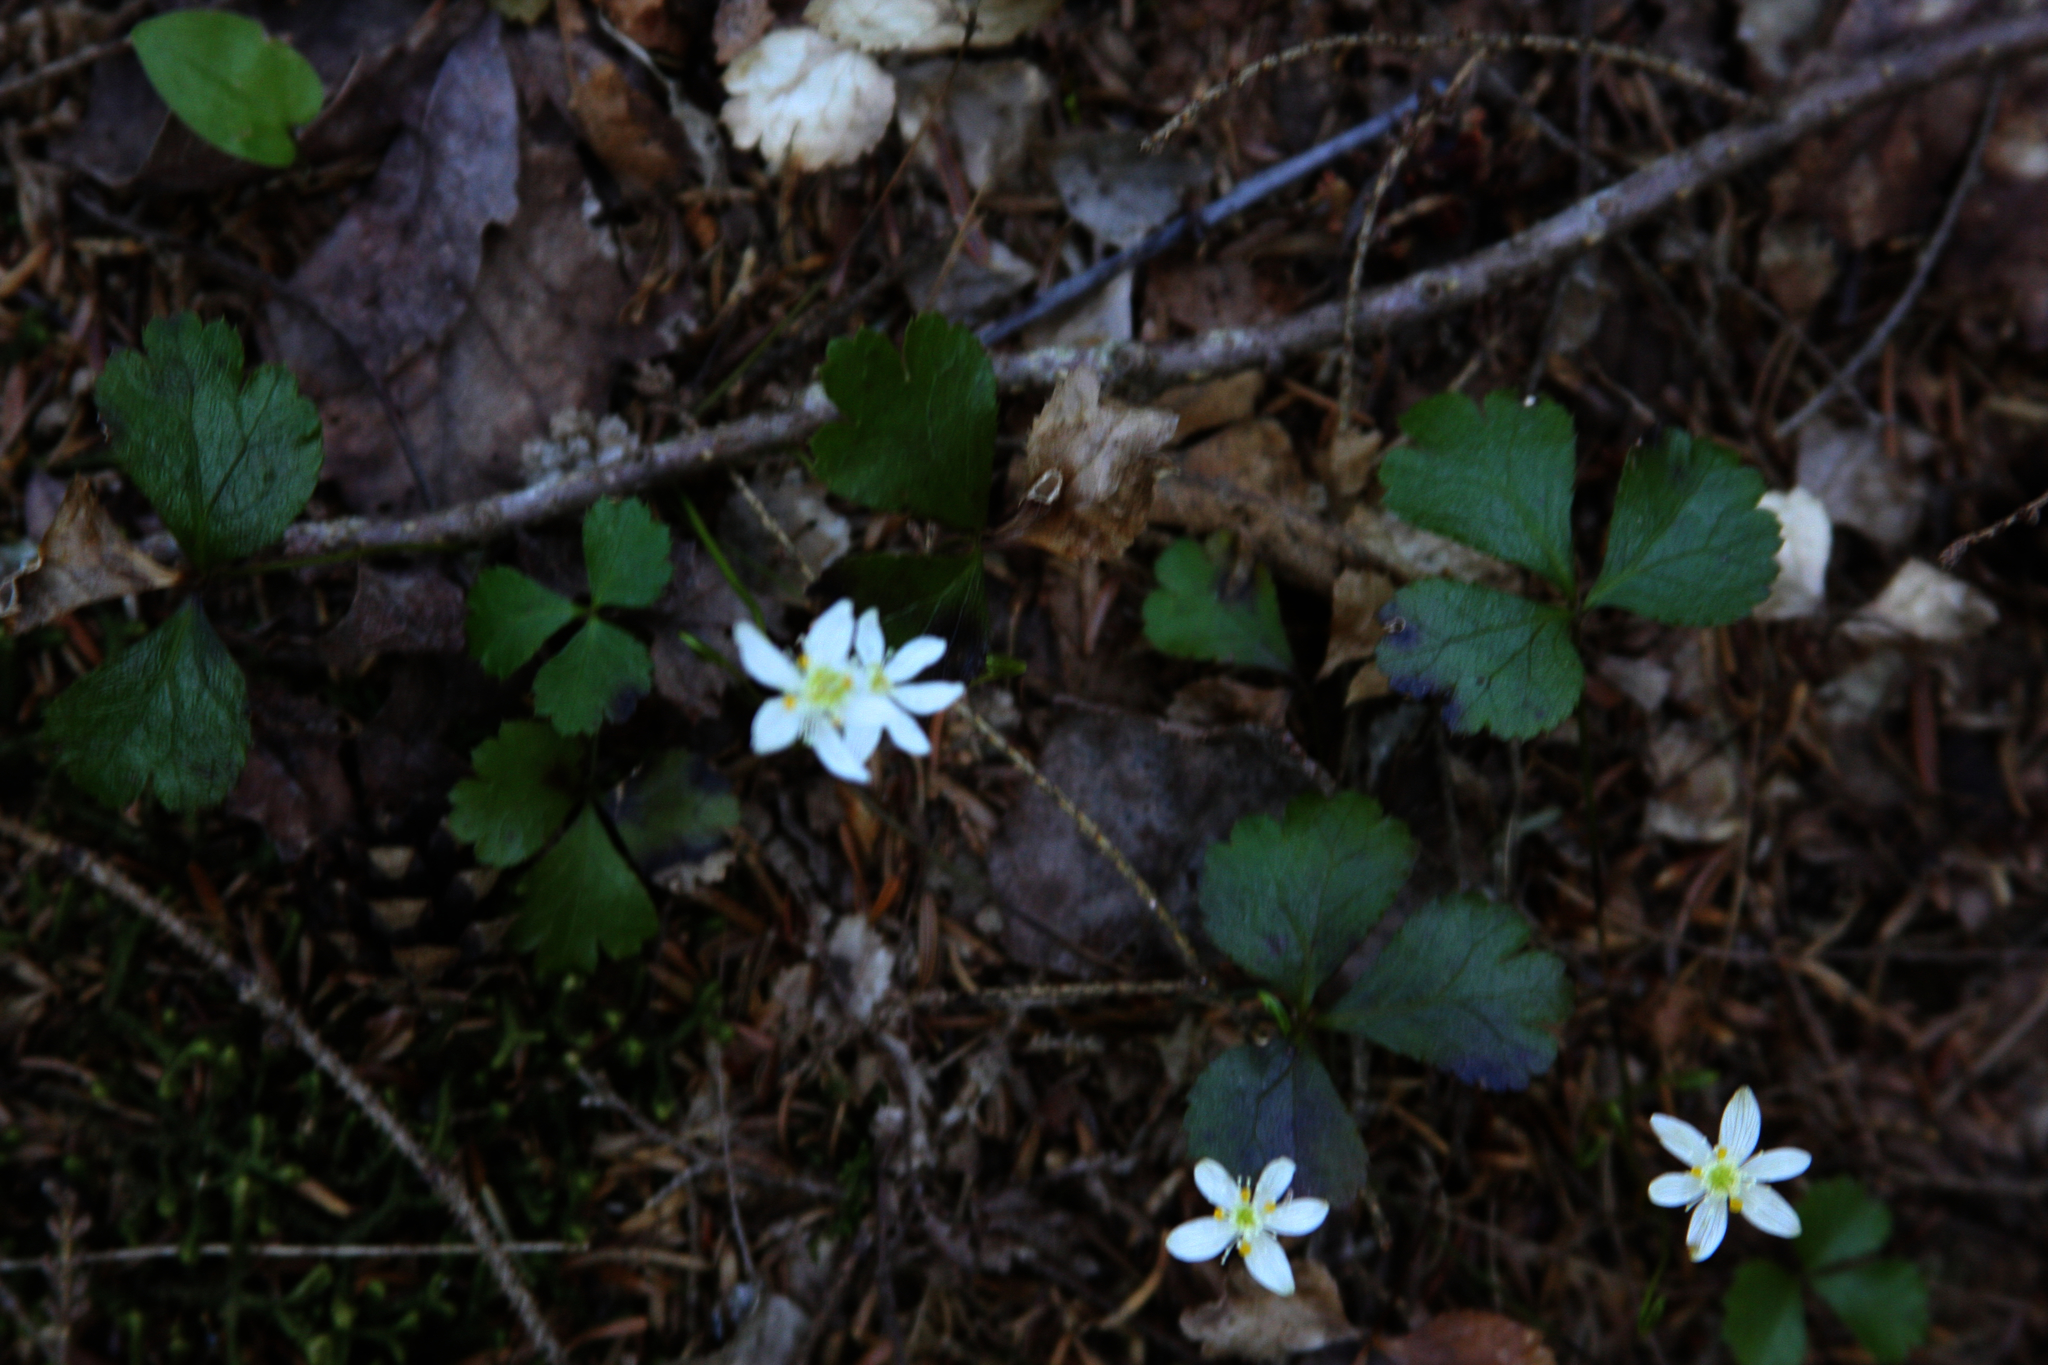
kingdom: Plantae
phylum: Tracheophyta
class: Magnoliopsida
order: Ranunculales
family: Ranunculaceae
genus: Coptis
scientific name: Coptis trifolia
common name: Canker-root
